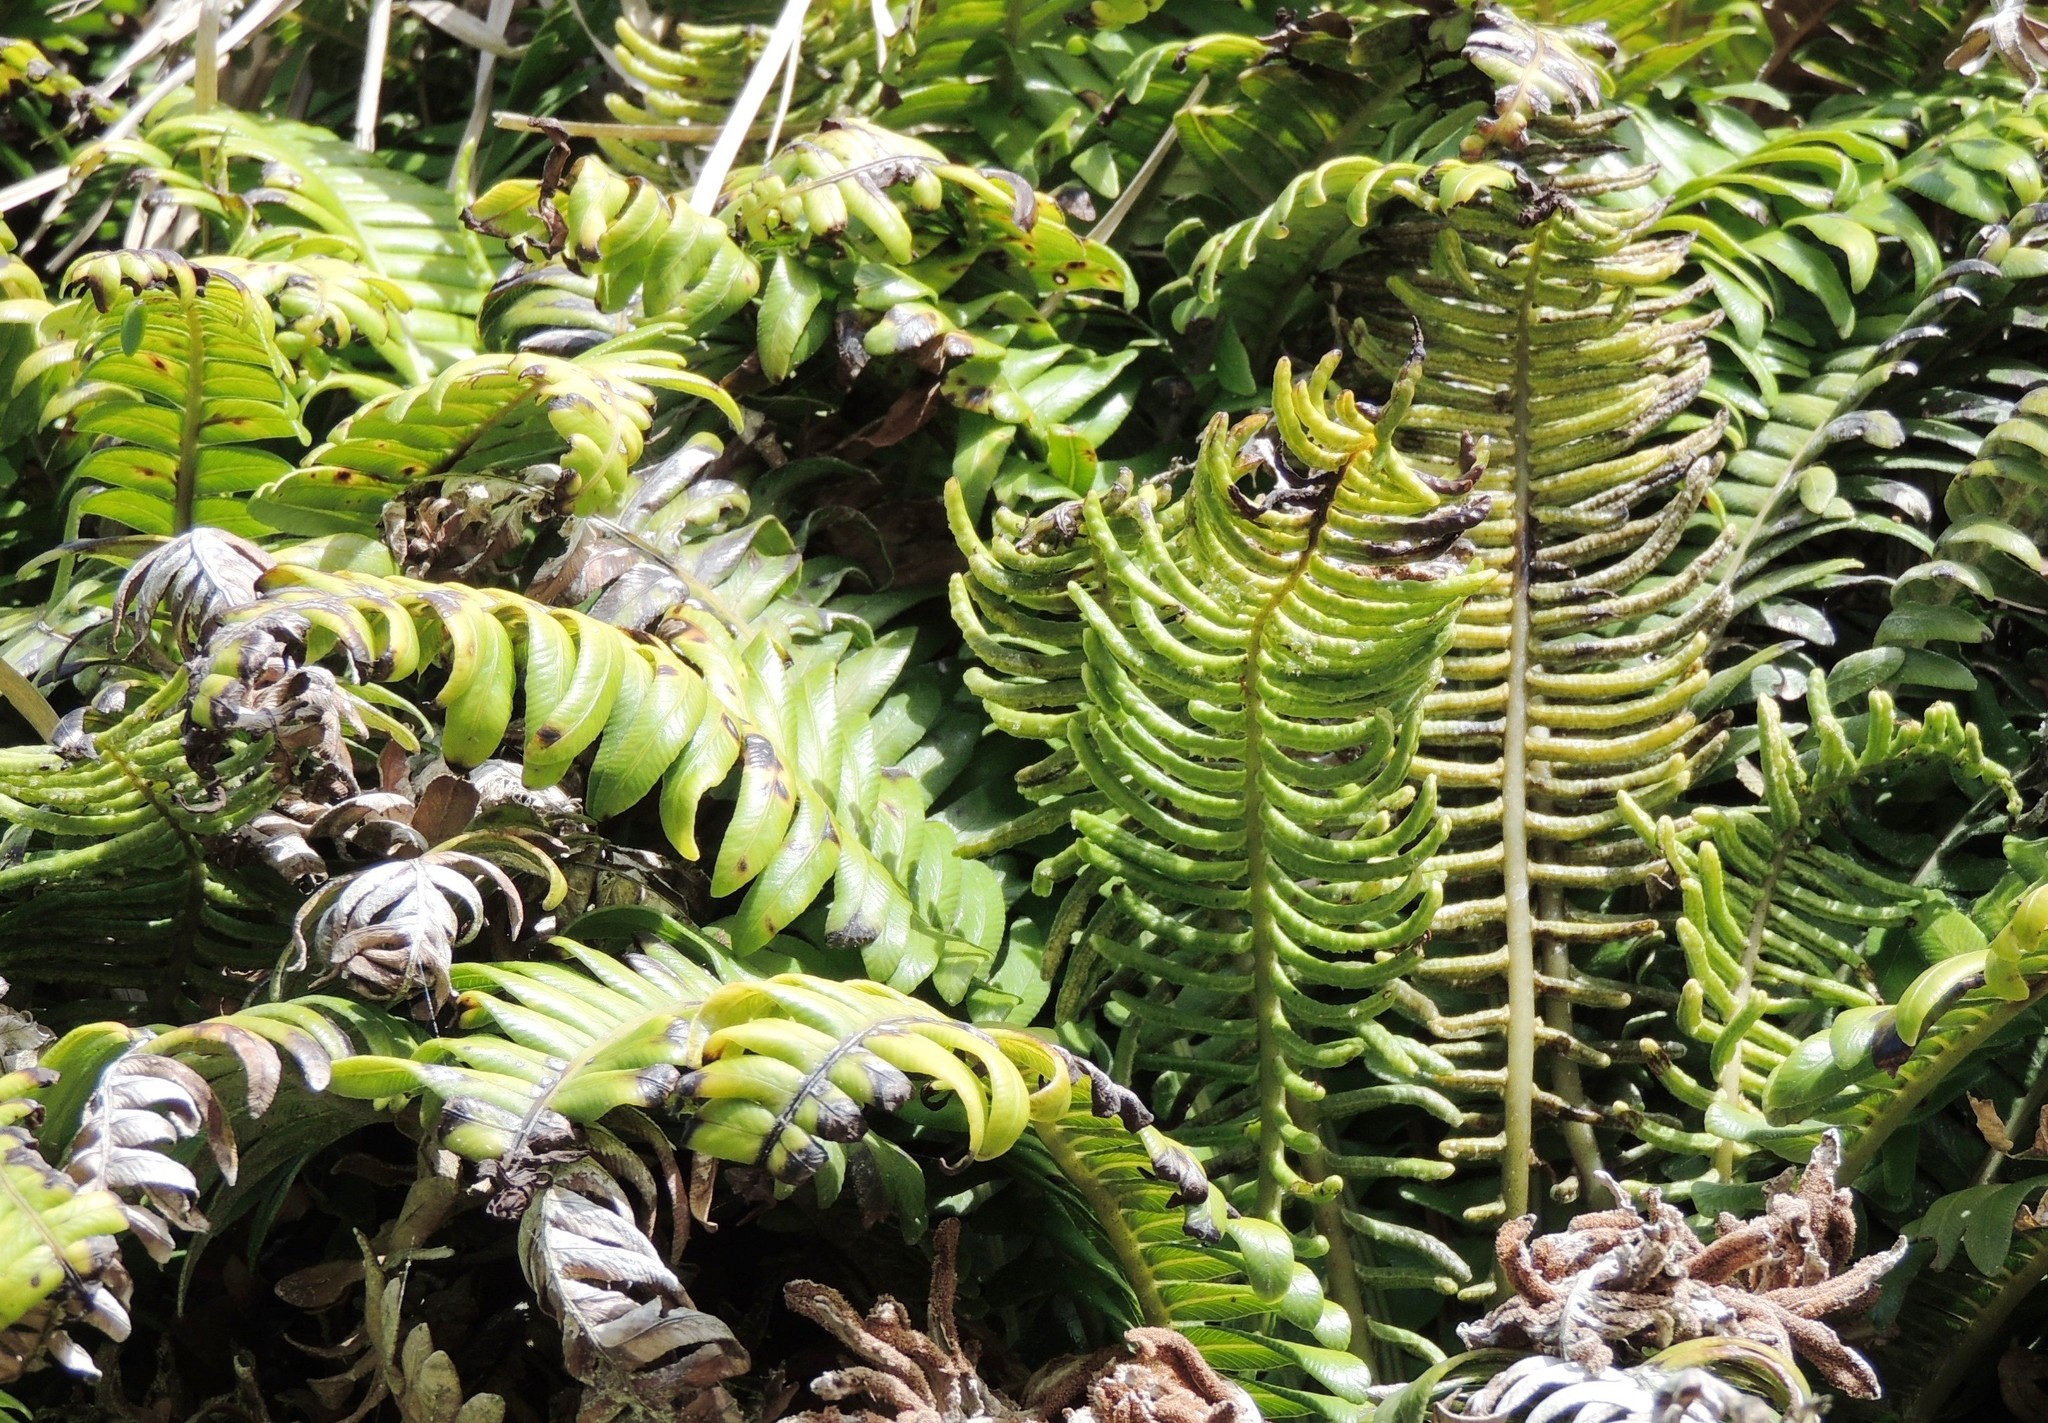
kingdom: Plantae
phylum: Tracheophyta
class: Polypodiopsida
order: Polypodiales
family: Blechnaceae
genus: Austroblechnum
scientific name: Austroblechnum durum
